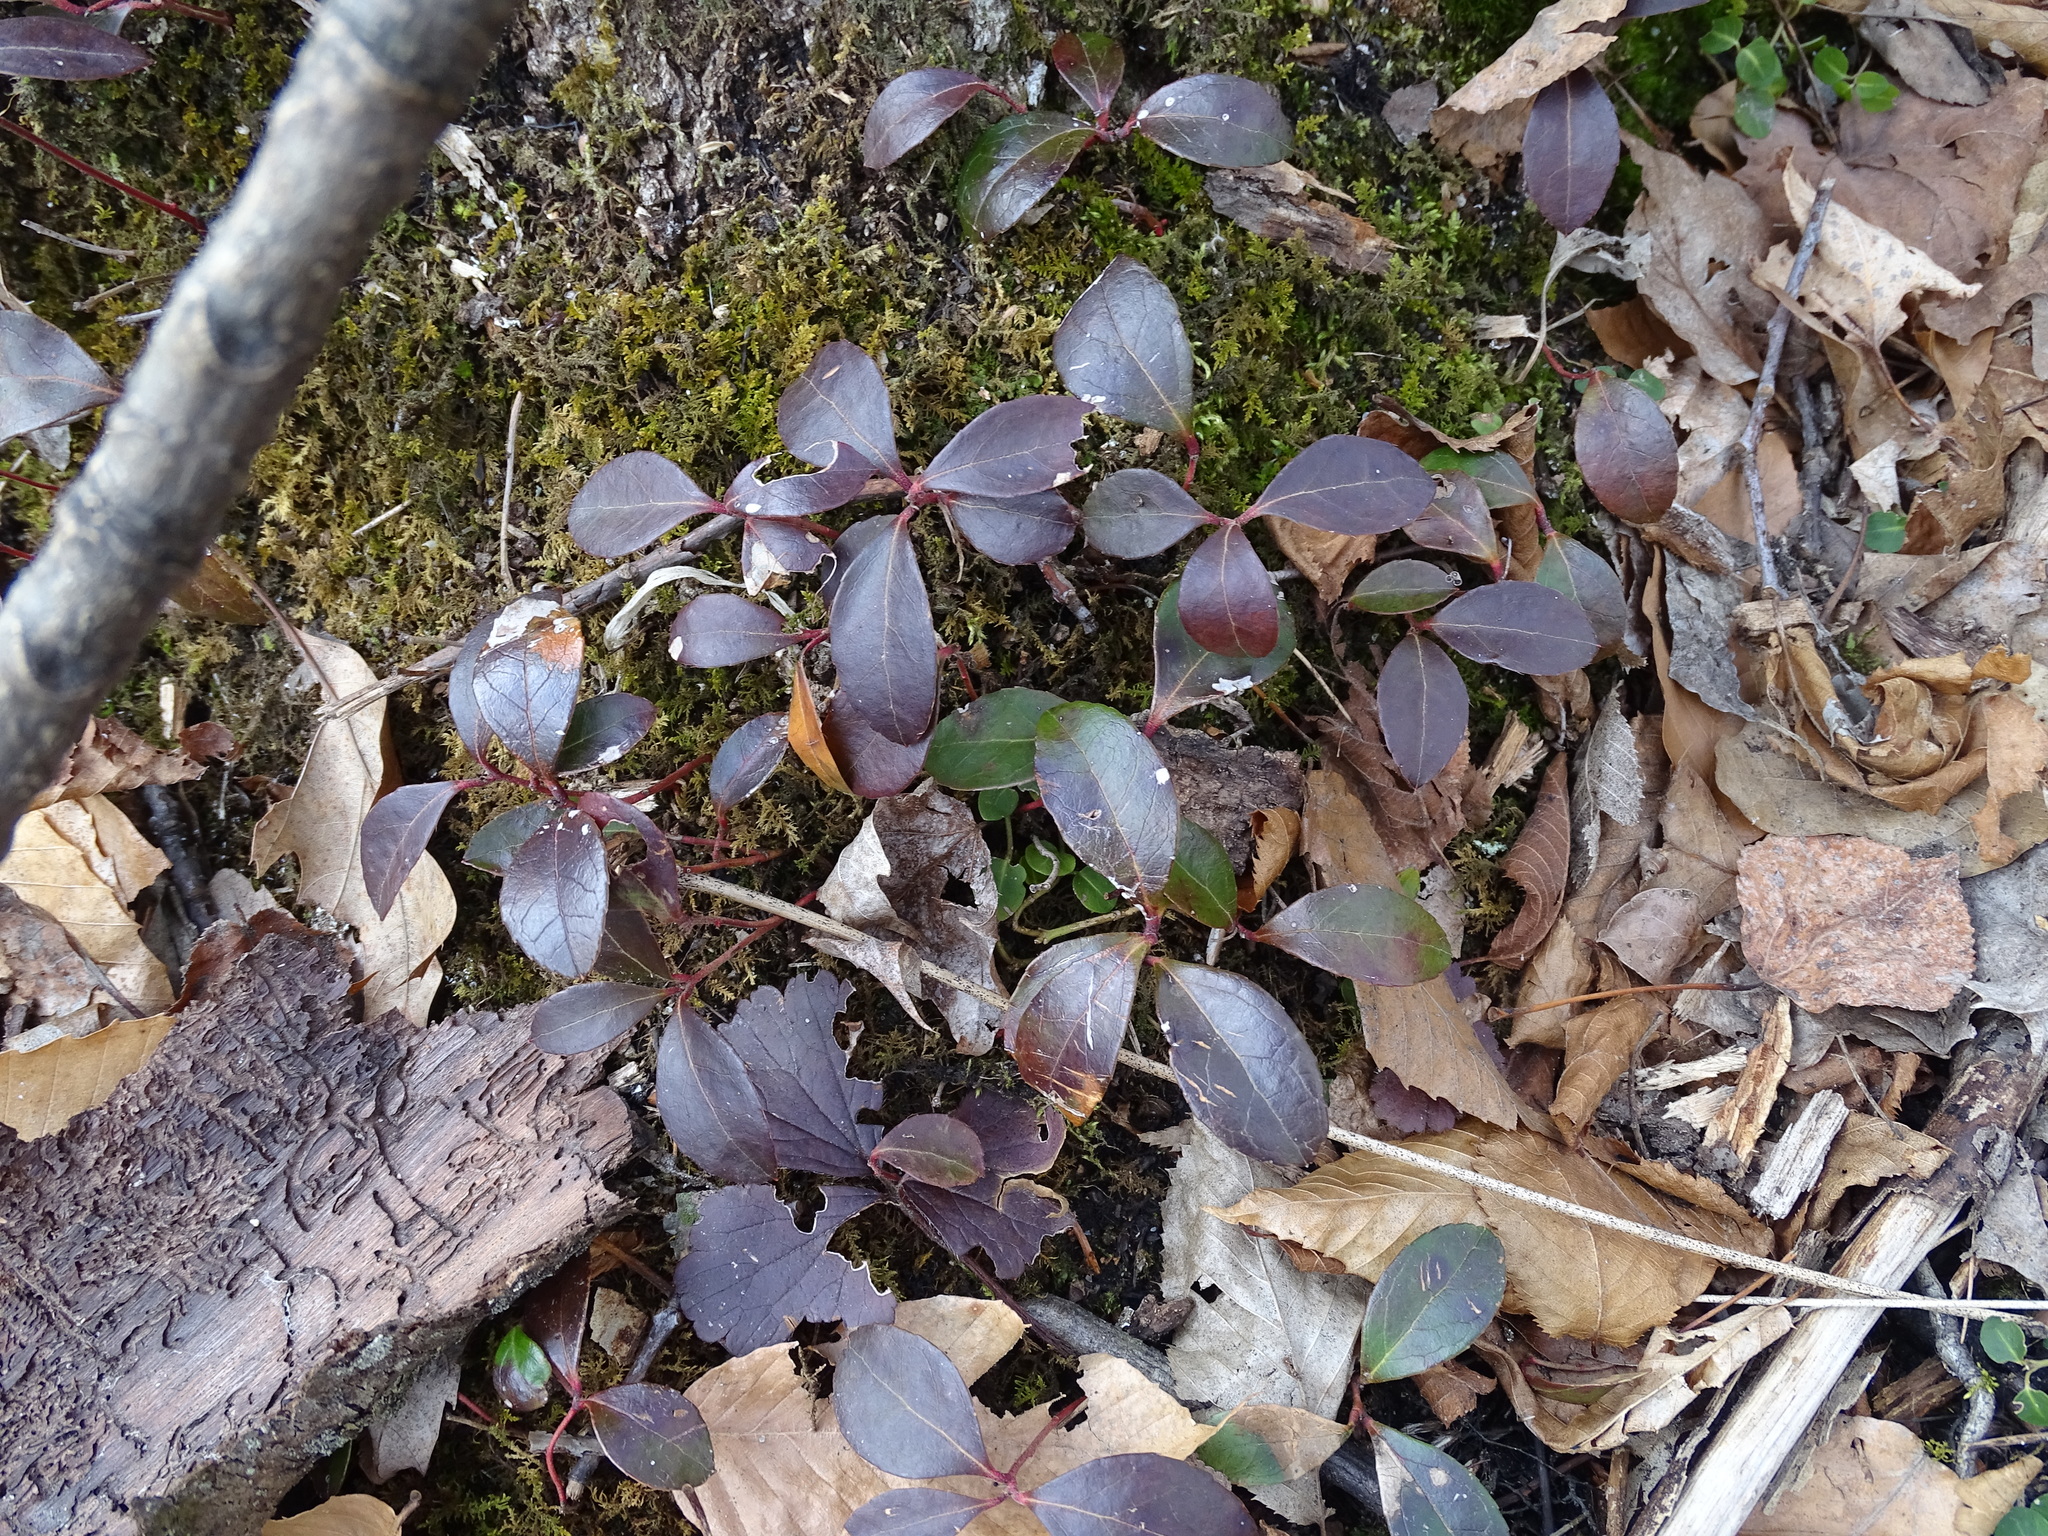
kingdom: Plantae
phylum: Tracheophyta
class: Magnoliopsida
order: Ericales
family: Ericaceae
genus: Gaultheria
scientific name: Gaultheria procumbens
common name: Checkerberry
